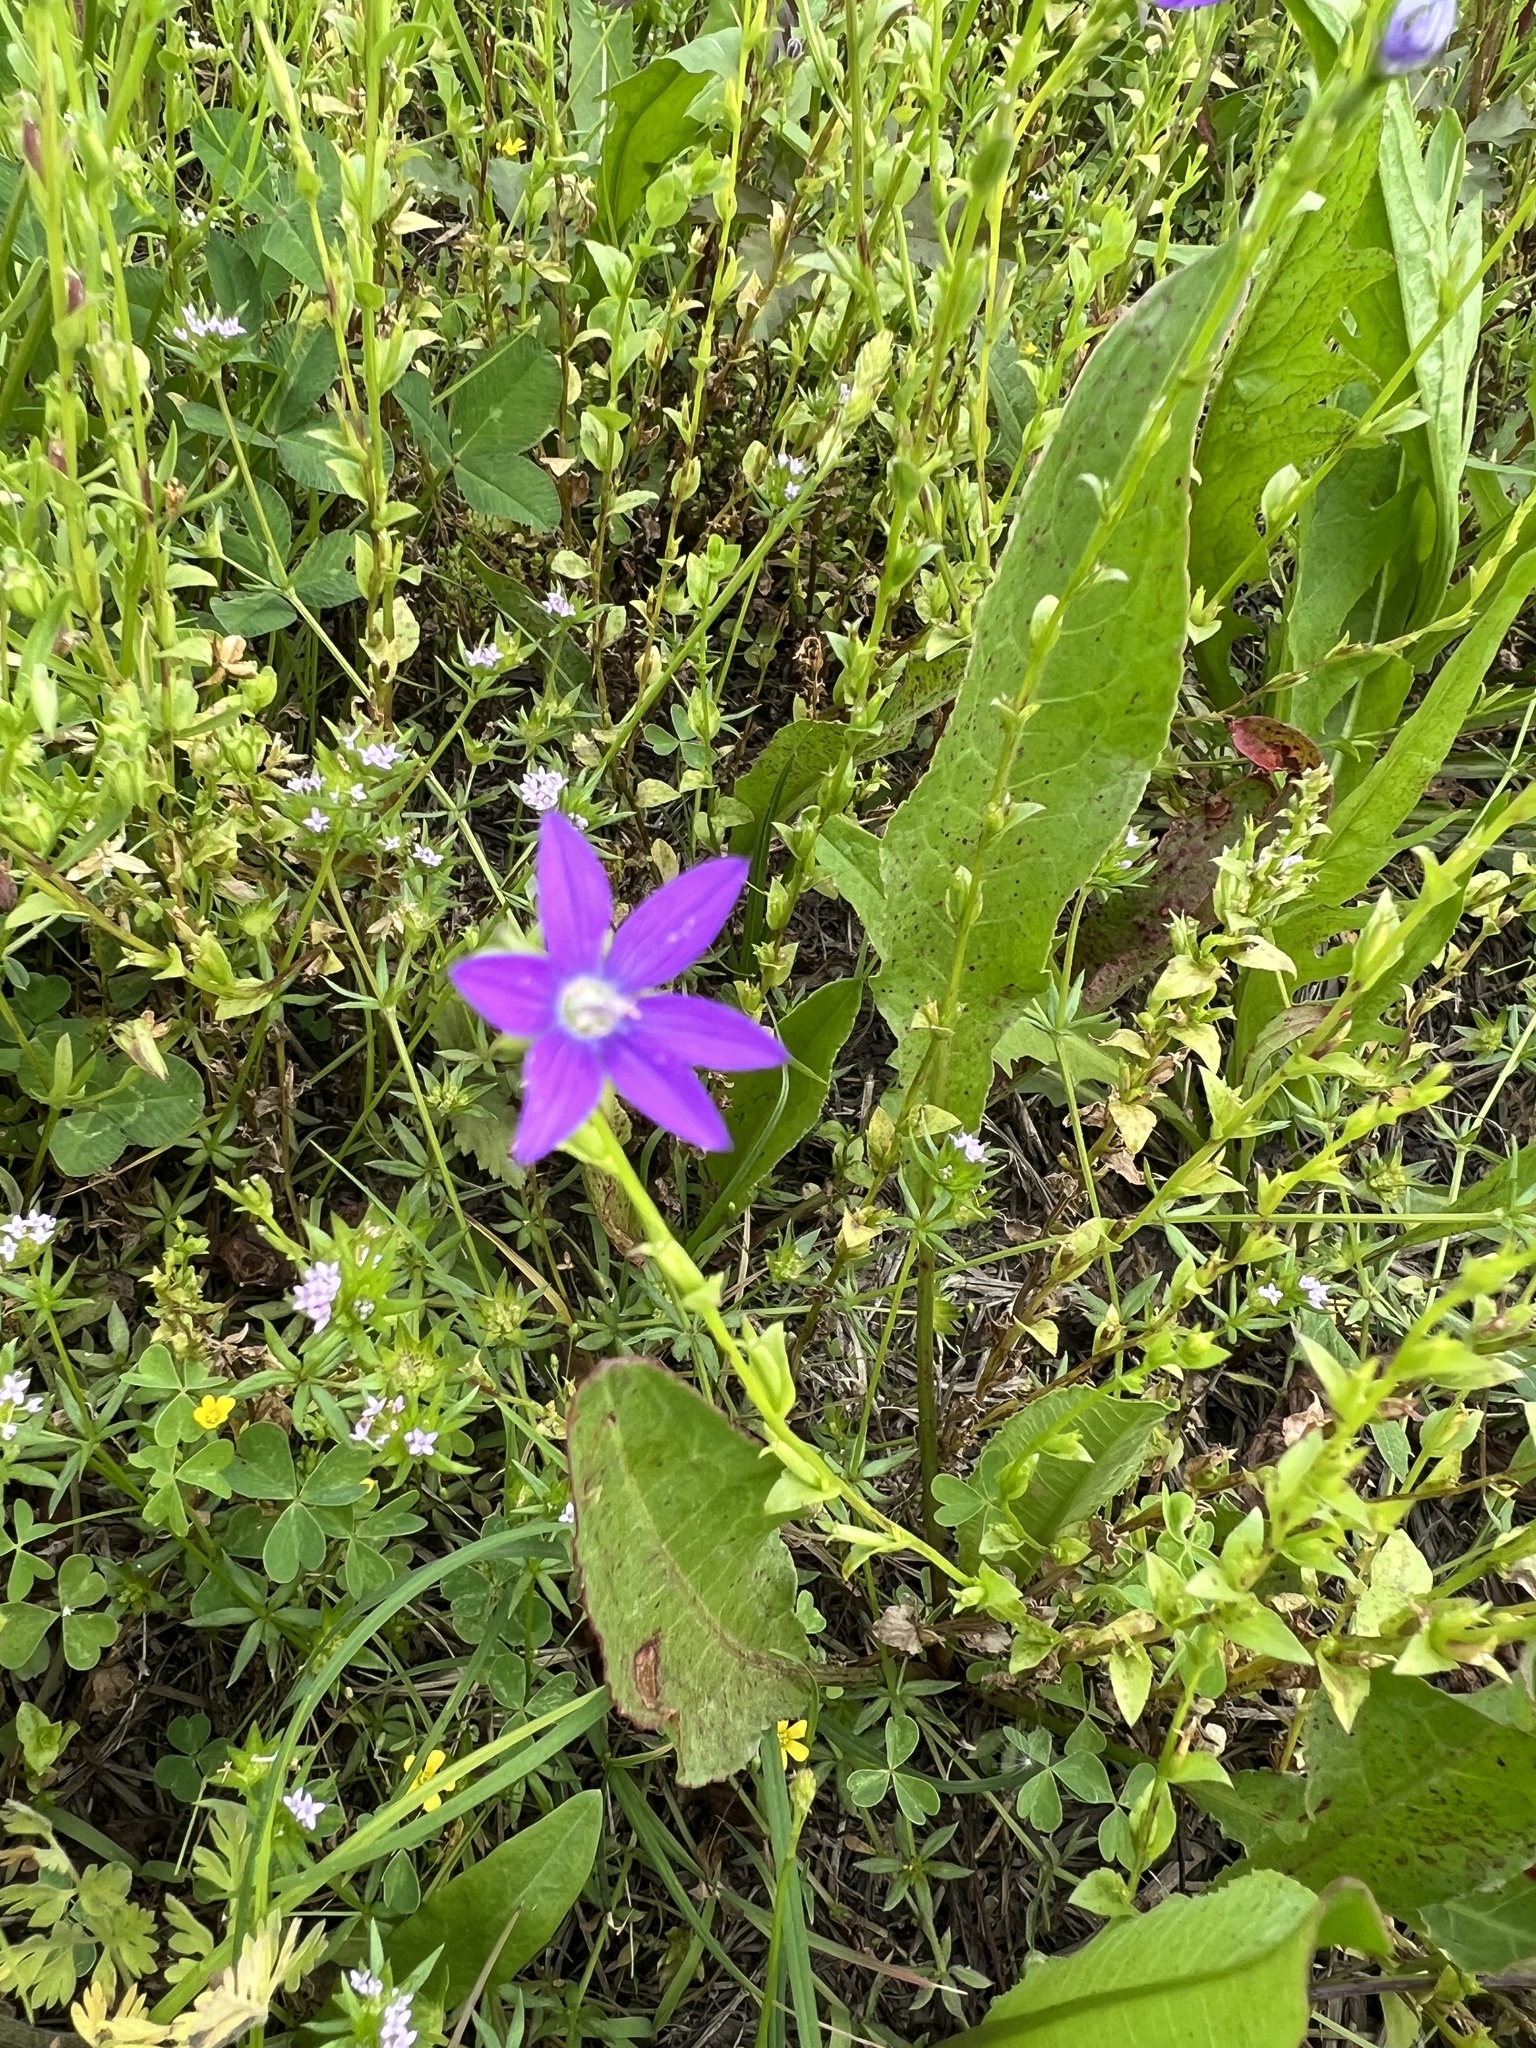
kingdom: Plantae
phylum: Tracheophyta
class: Magnoliopsida
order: Asterales
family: Campanulaceae
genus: Triodanis
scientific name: Triodanis biflora
